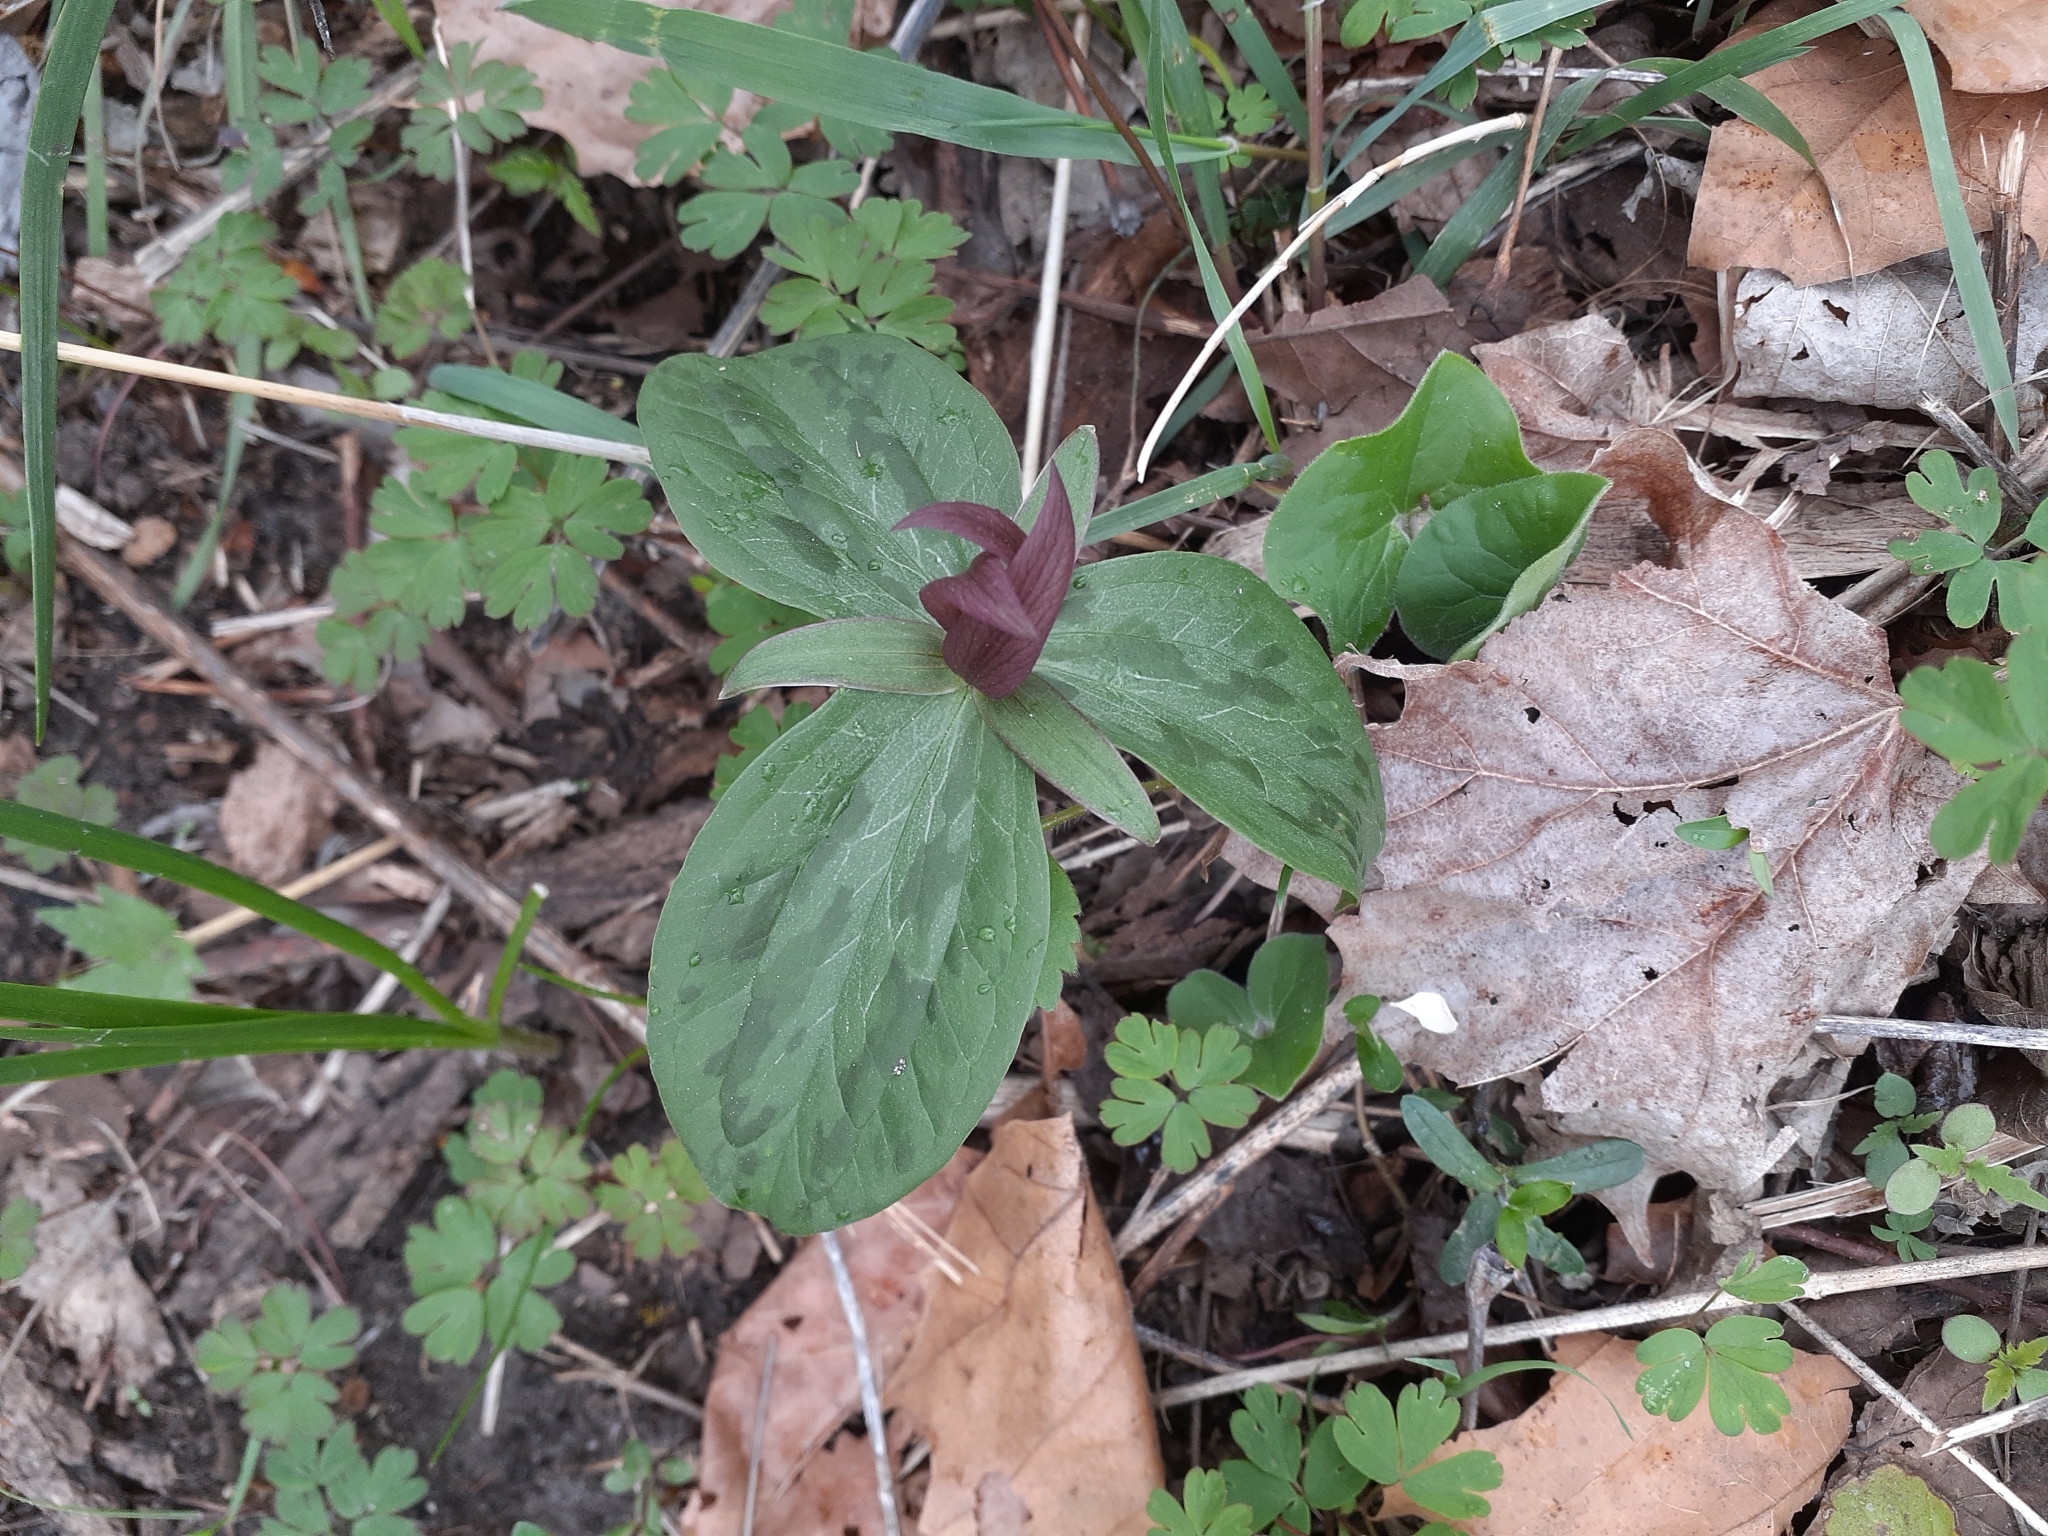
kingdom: Plantae
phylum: Tracheophyta
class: Liliopsida
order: Liliales
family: Melanthiaceae
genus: Trillium
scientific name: Trillium sessile
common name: Sessile trillium
